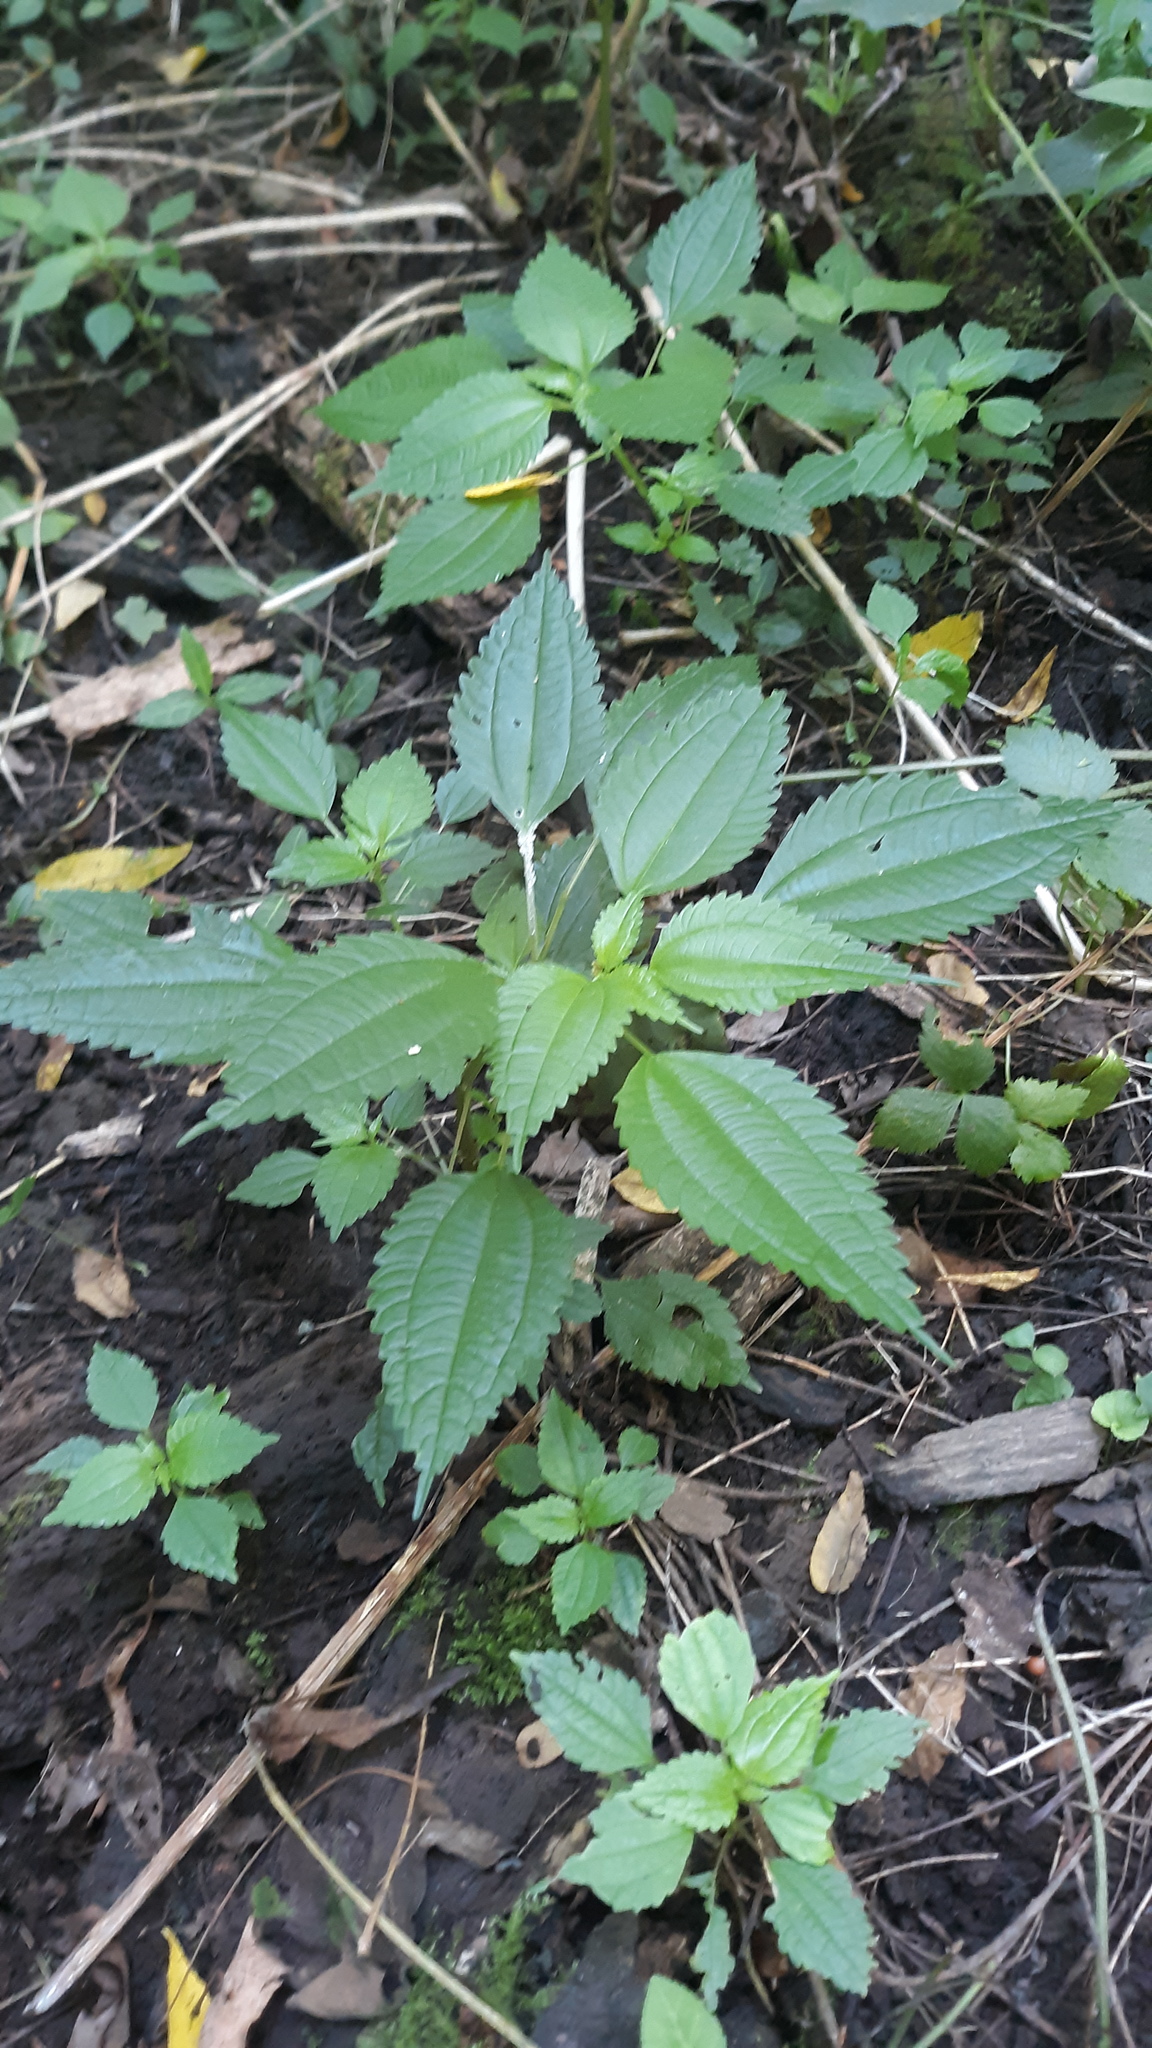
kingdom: Plantae
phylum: Tracheophyta
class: Magnoliopsida
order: Rosales
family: Urticaceae
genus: Pilea
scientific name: Pilea pumila
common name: Clearweed
